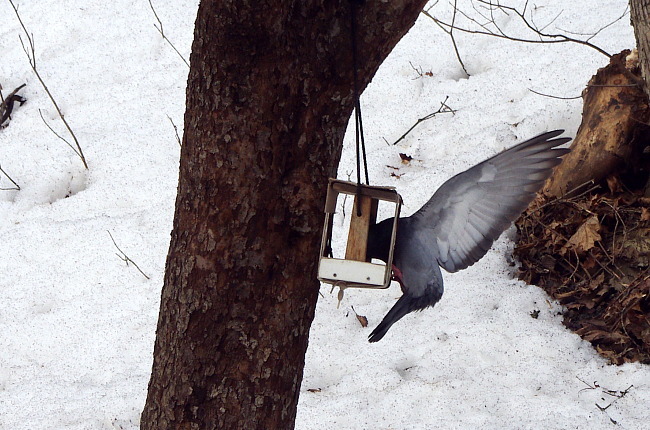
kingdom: Animalia
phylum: Chordata
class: Aves
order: Columbiformes
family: Columbidae
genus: Columba
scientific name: Columba livia
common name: Rock pigeon
